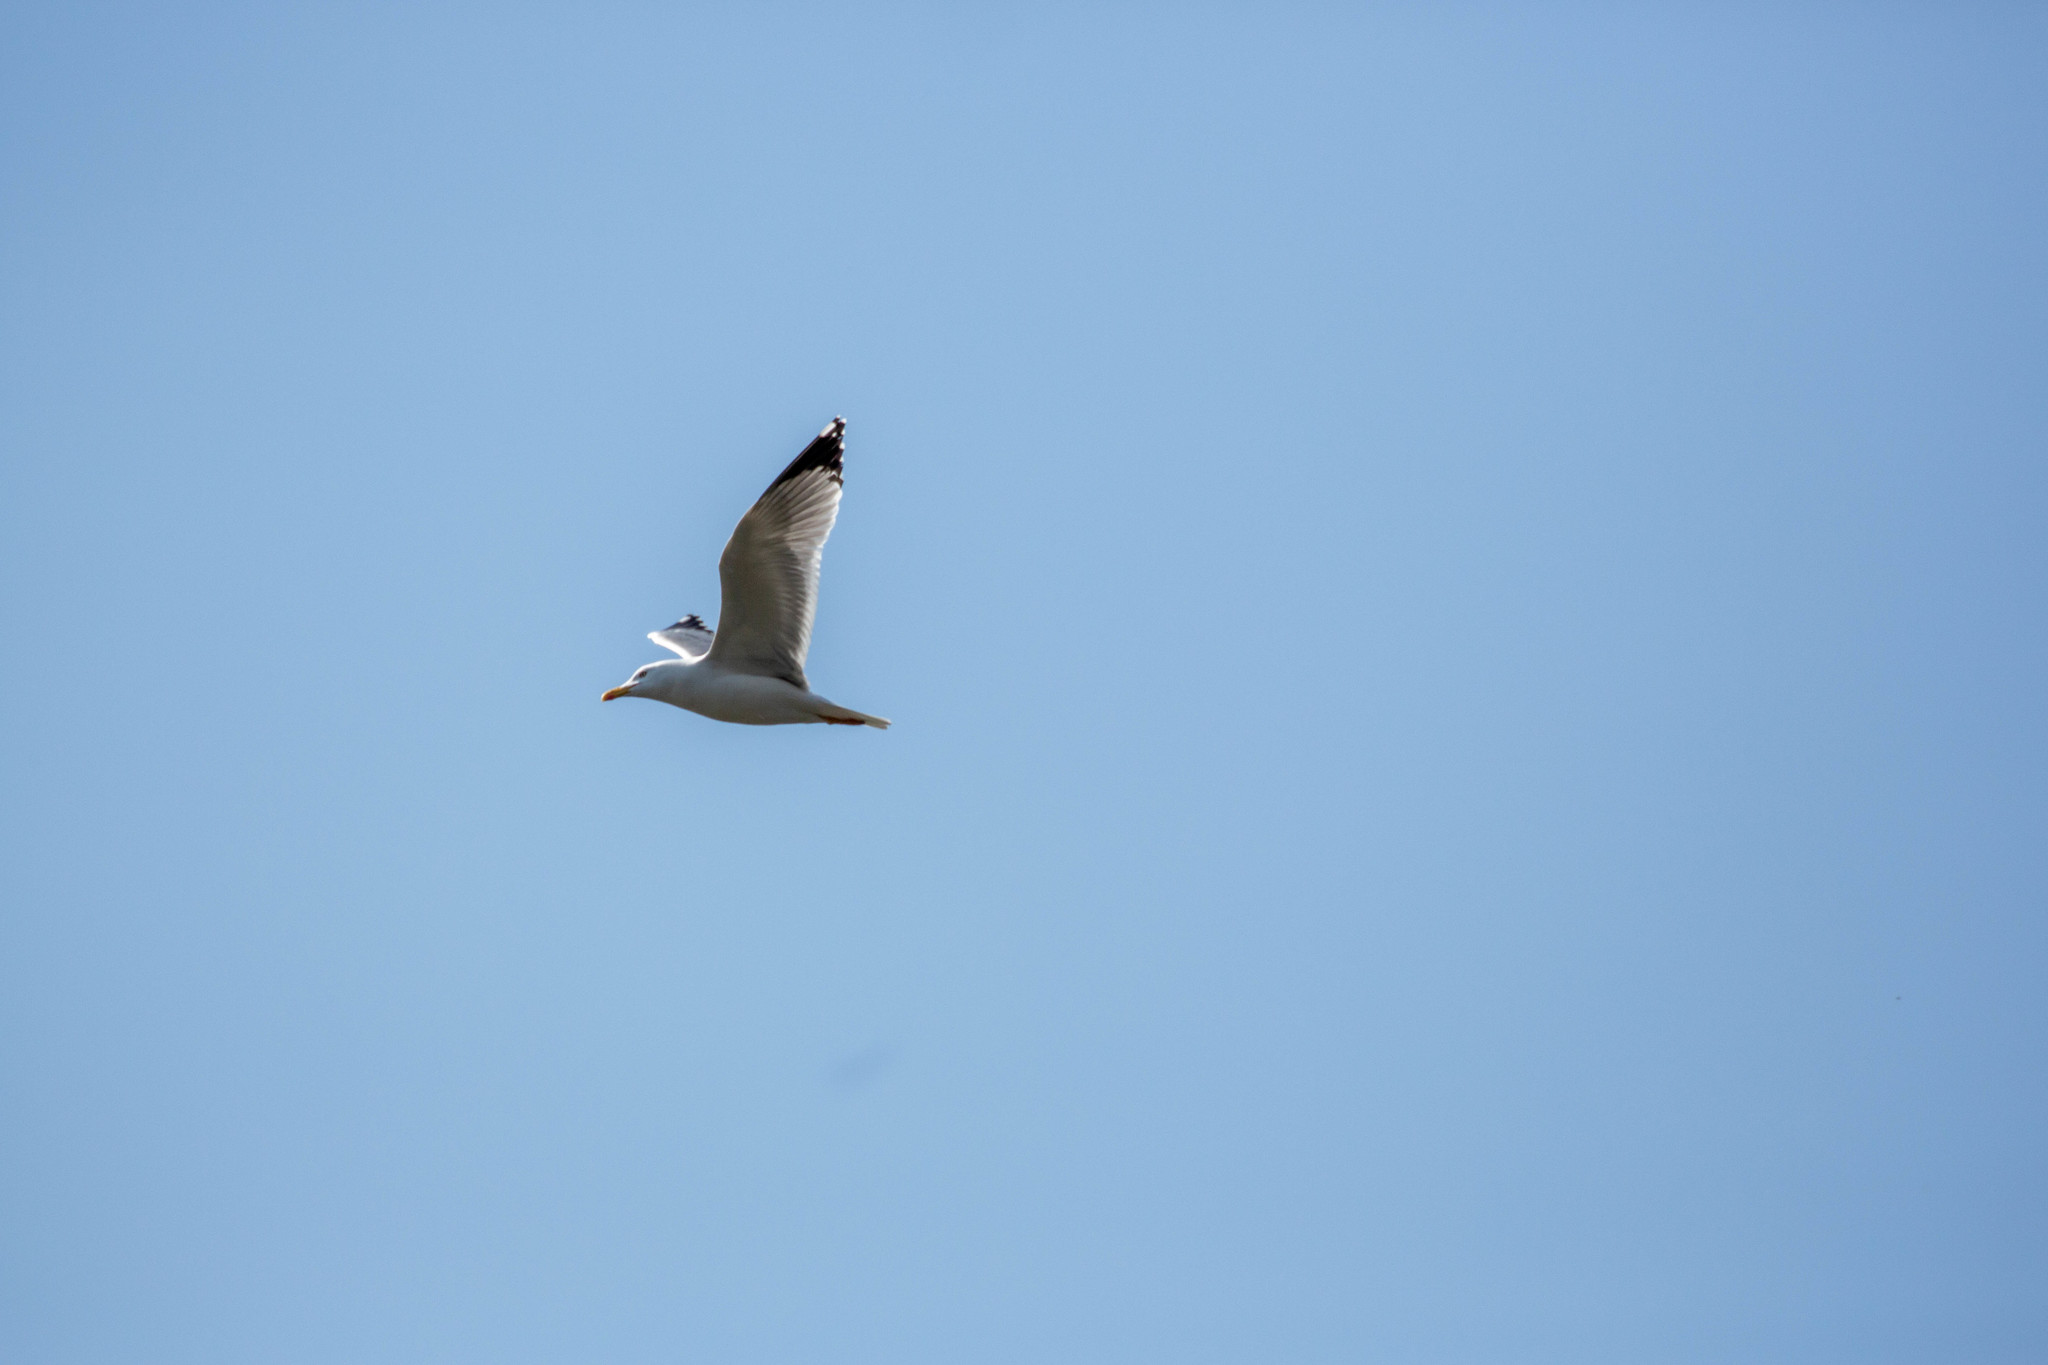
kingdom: Animalia
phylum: Chordata
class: Aves
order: Charadriiformes
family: Laridae
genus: Larus
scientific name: Larus michahellis
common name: Yellow-legged gull
